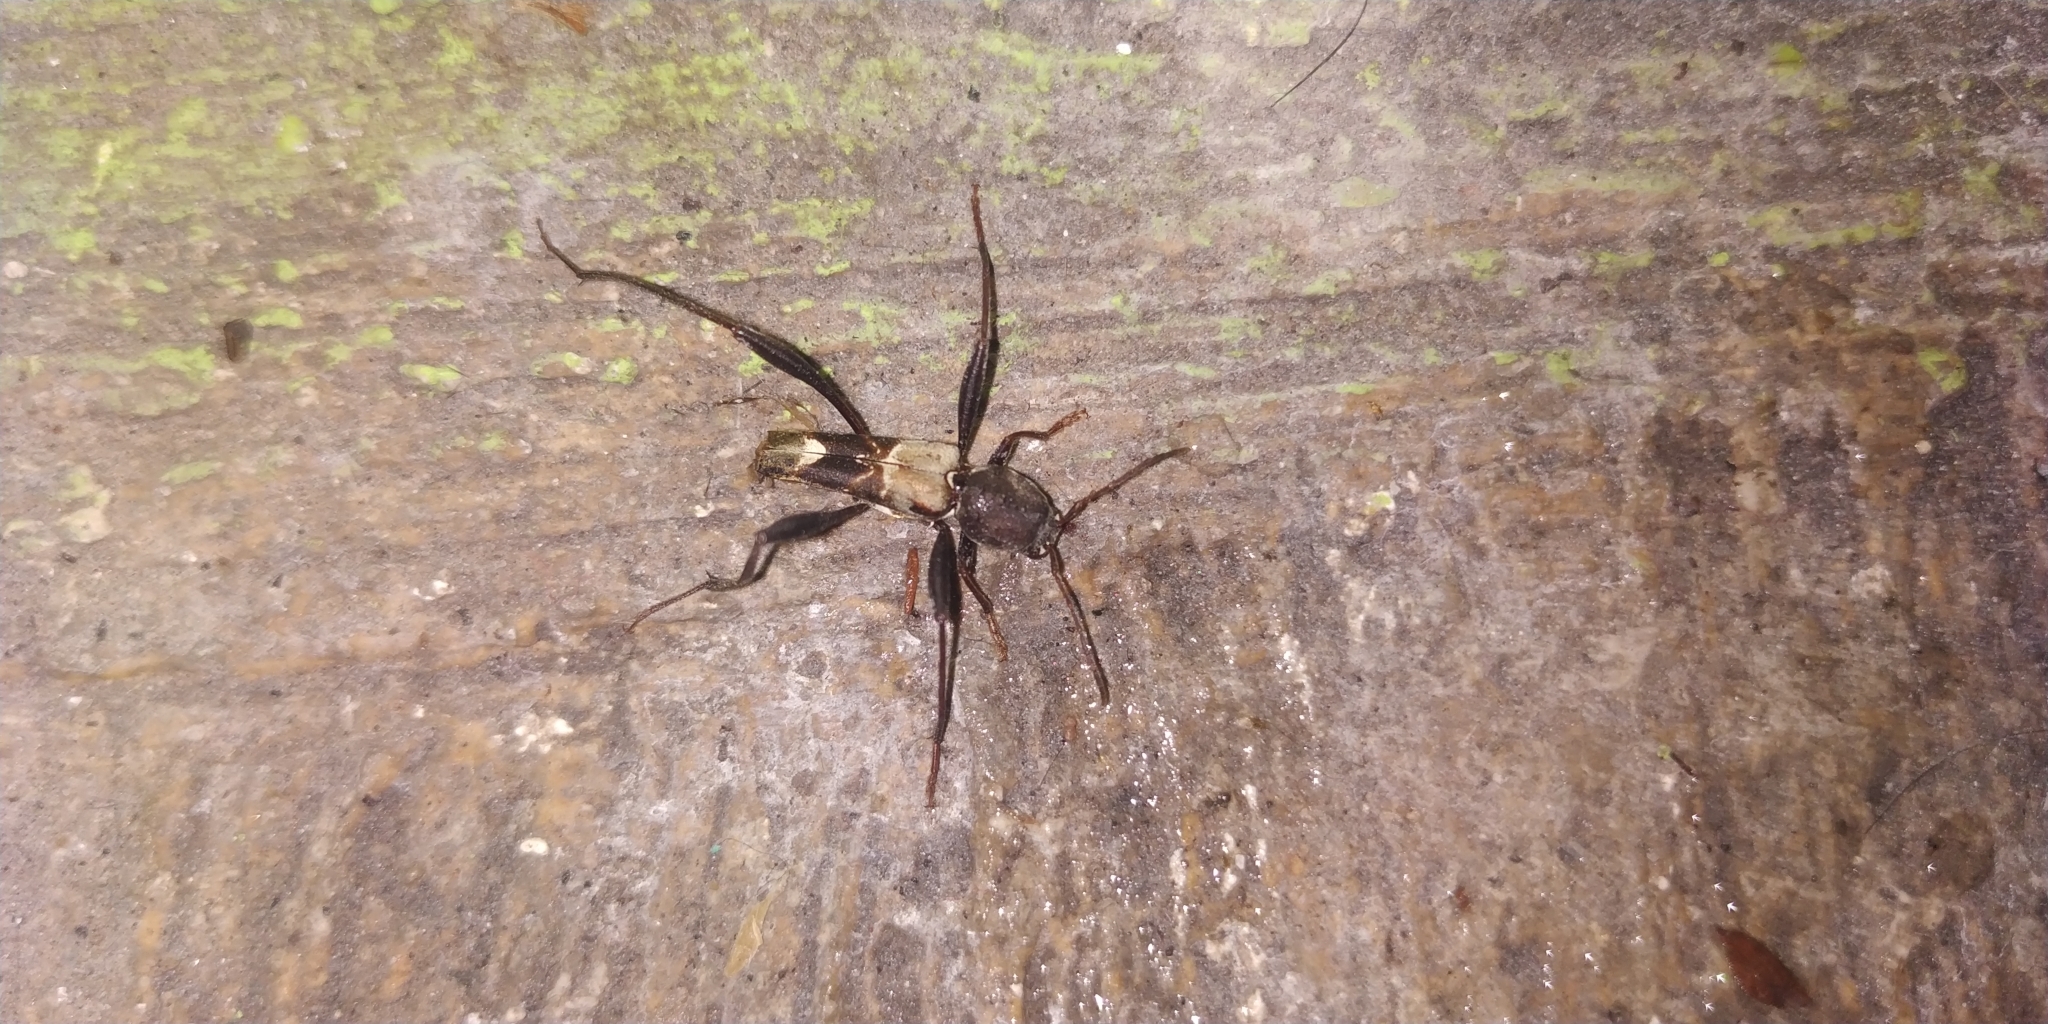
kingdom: Animalia
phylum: Arthropoda
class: Insecta
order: Coleoptera
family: Cerambycidae
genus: Neoclytus
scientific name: Neoclytus augusti
